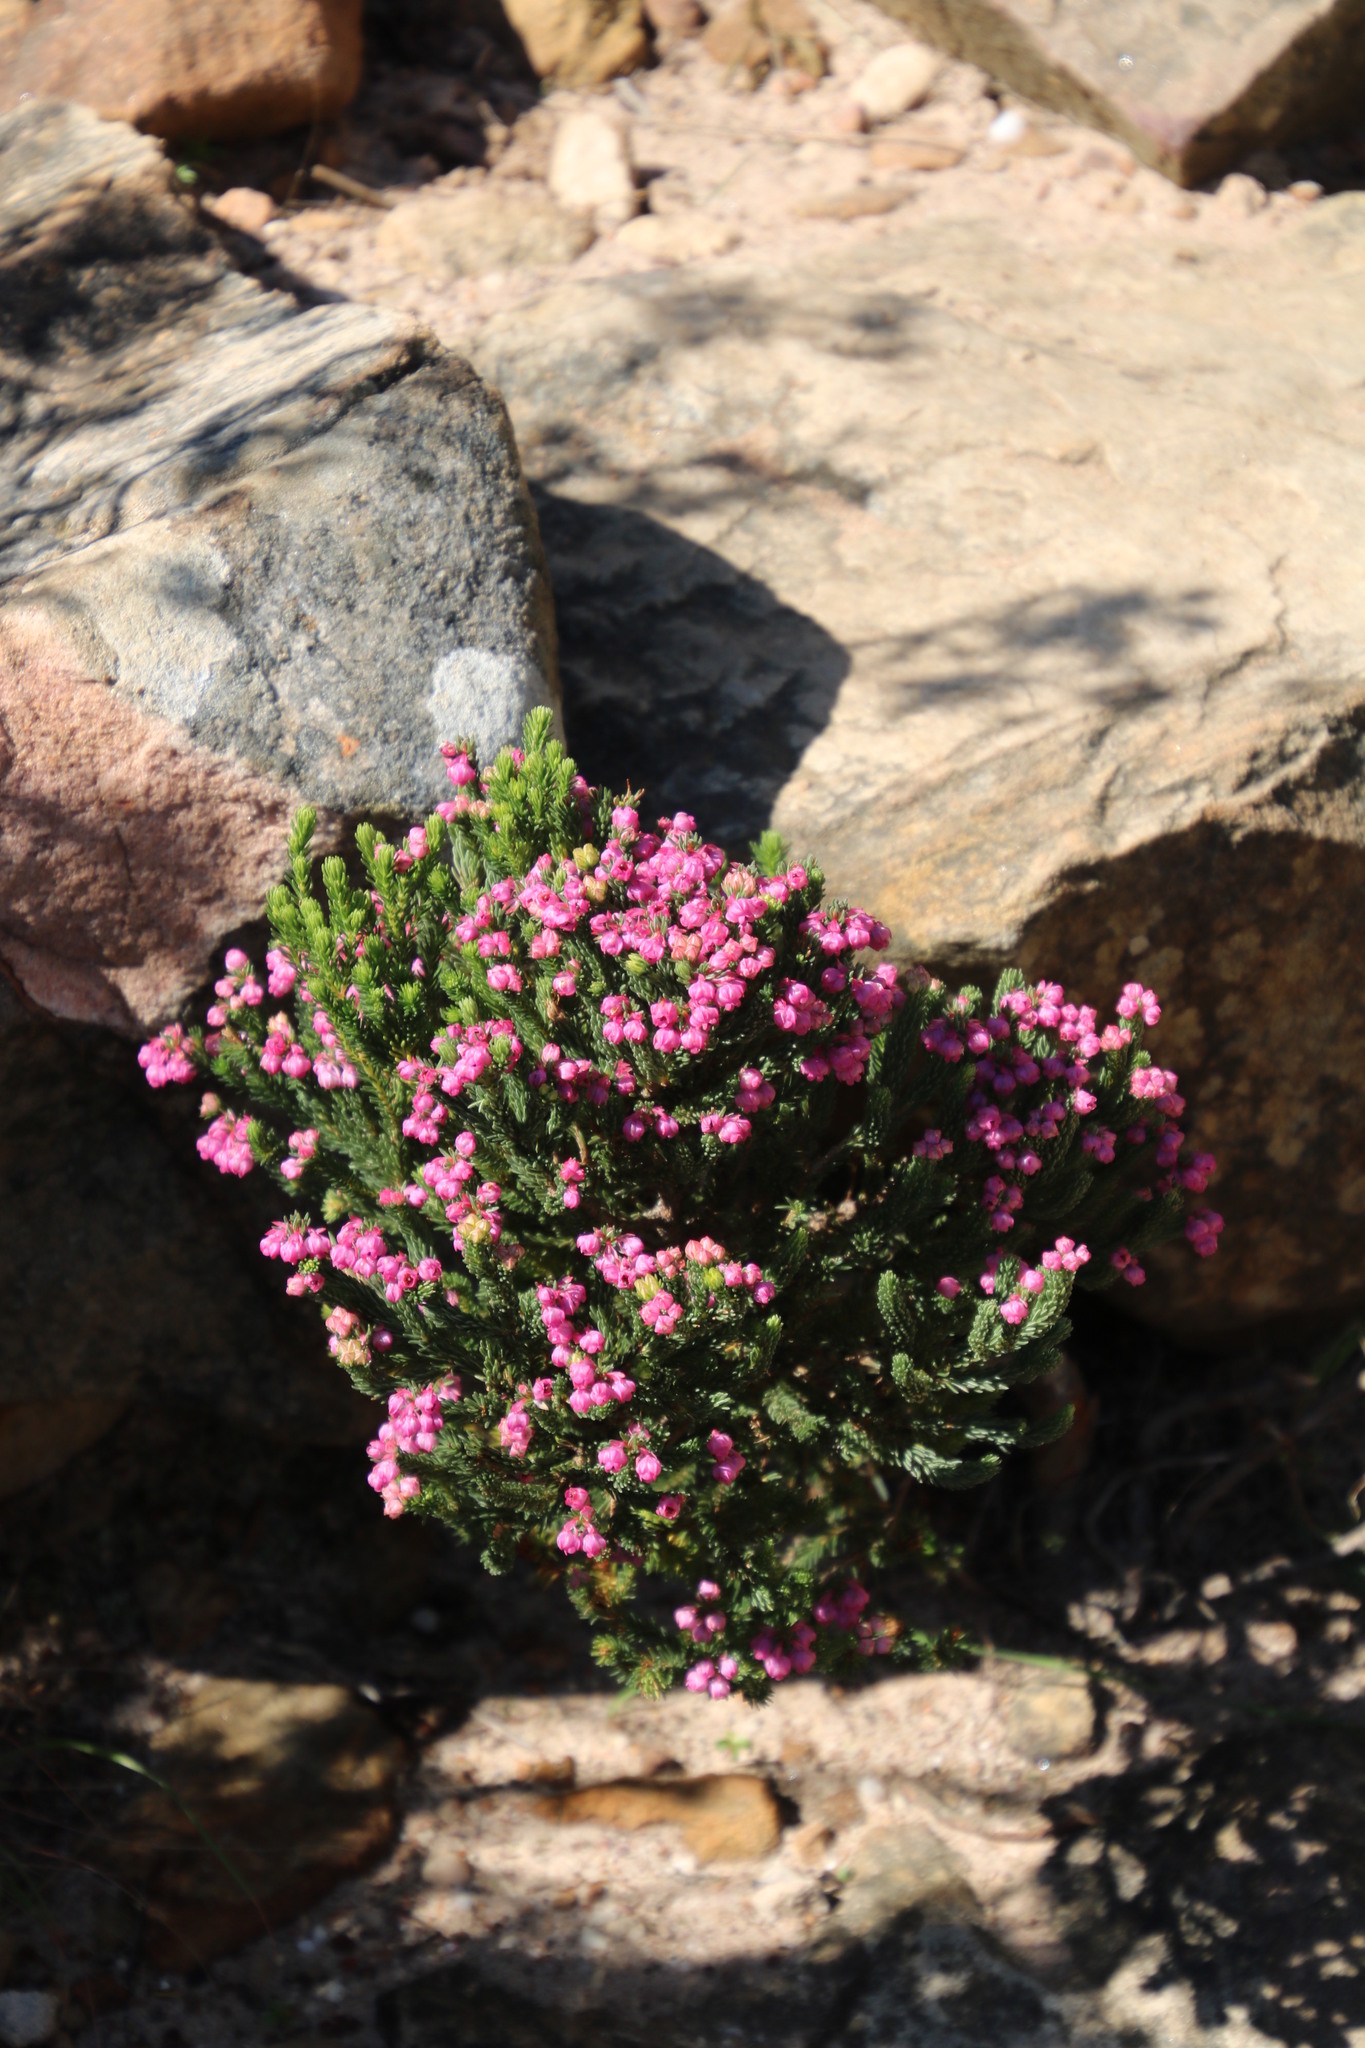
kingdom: Plantae
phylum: Tracheophyta
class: Magnoliopsida
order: Ericales
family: Ericaceae
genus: Erica
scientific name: Erica baccans
